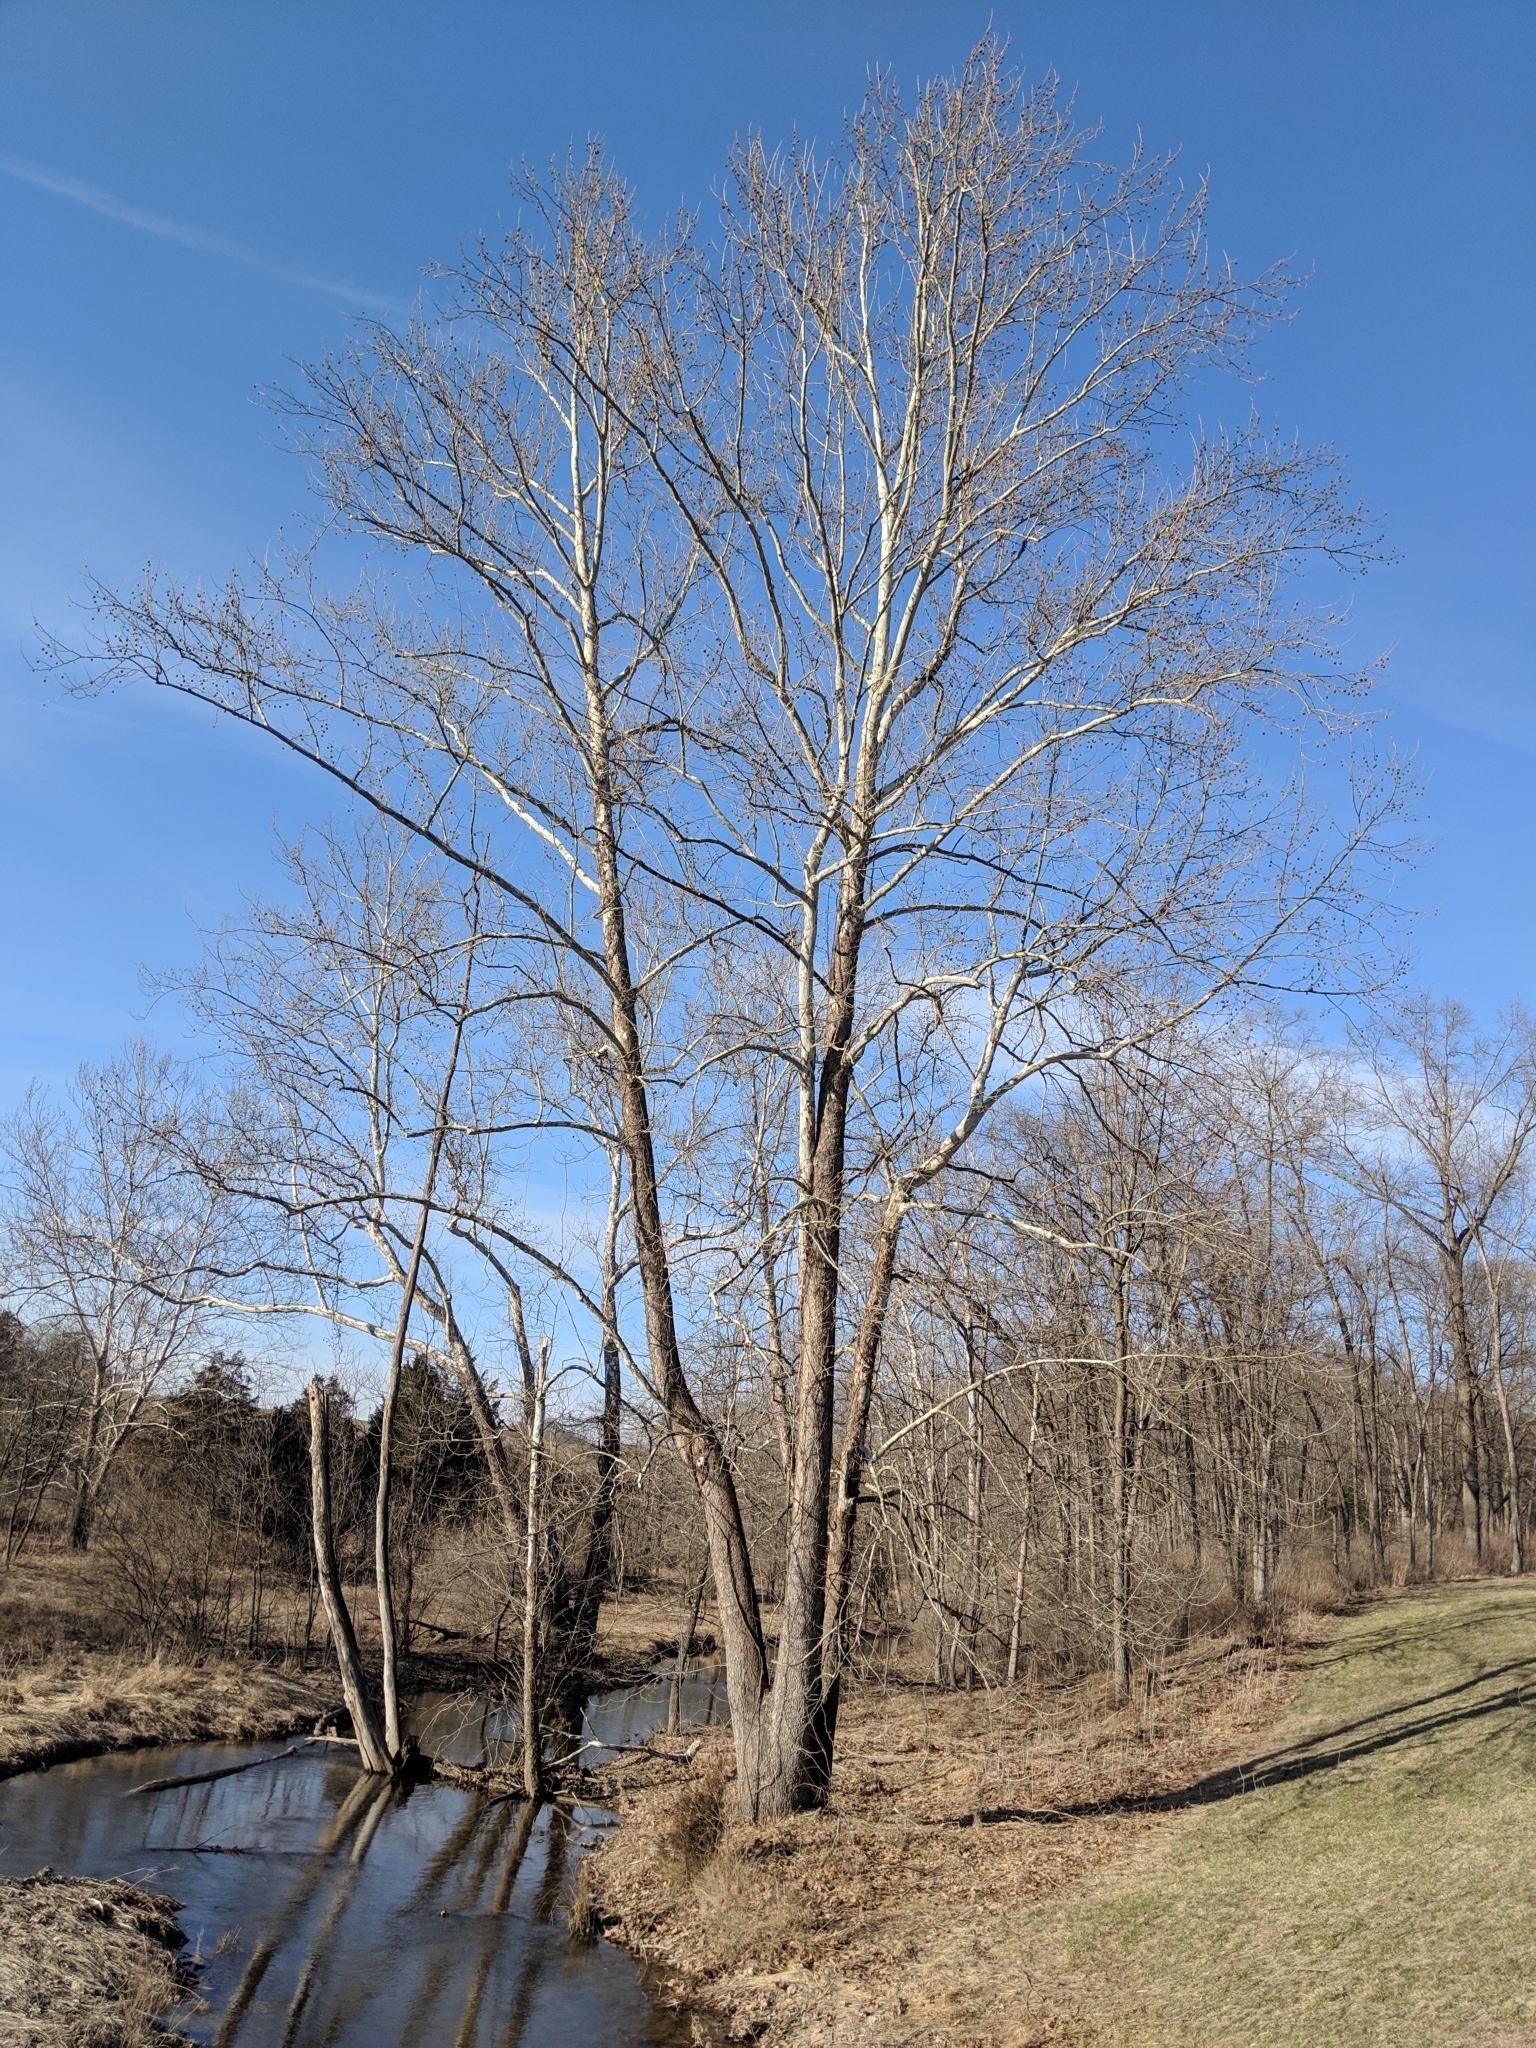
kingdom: Plantae
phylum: Tracheophyta
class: Magnoliopsida
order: Proteales
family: Platanaceae
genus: Platanus
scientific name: Platanus occidentalis
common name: American sycamore
